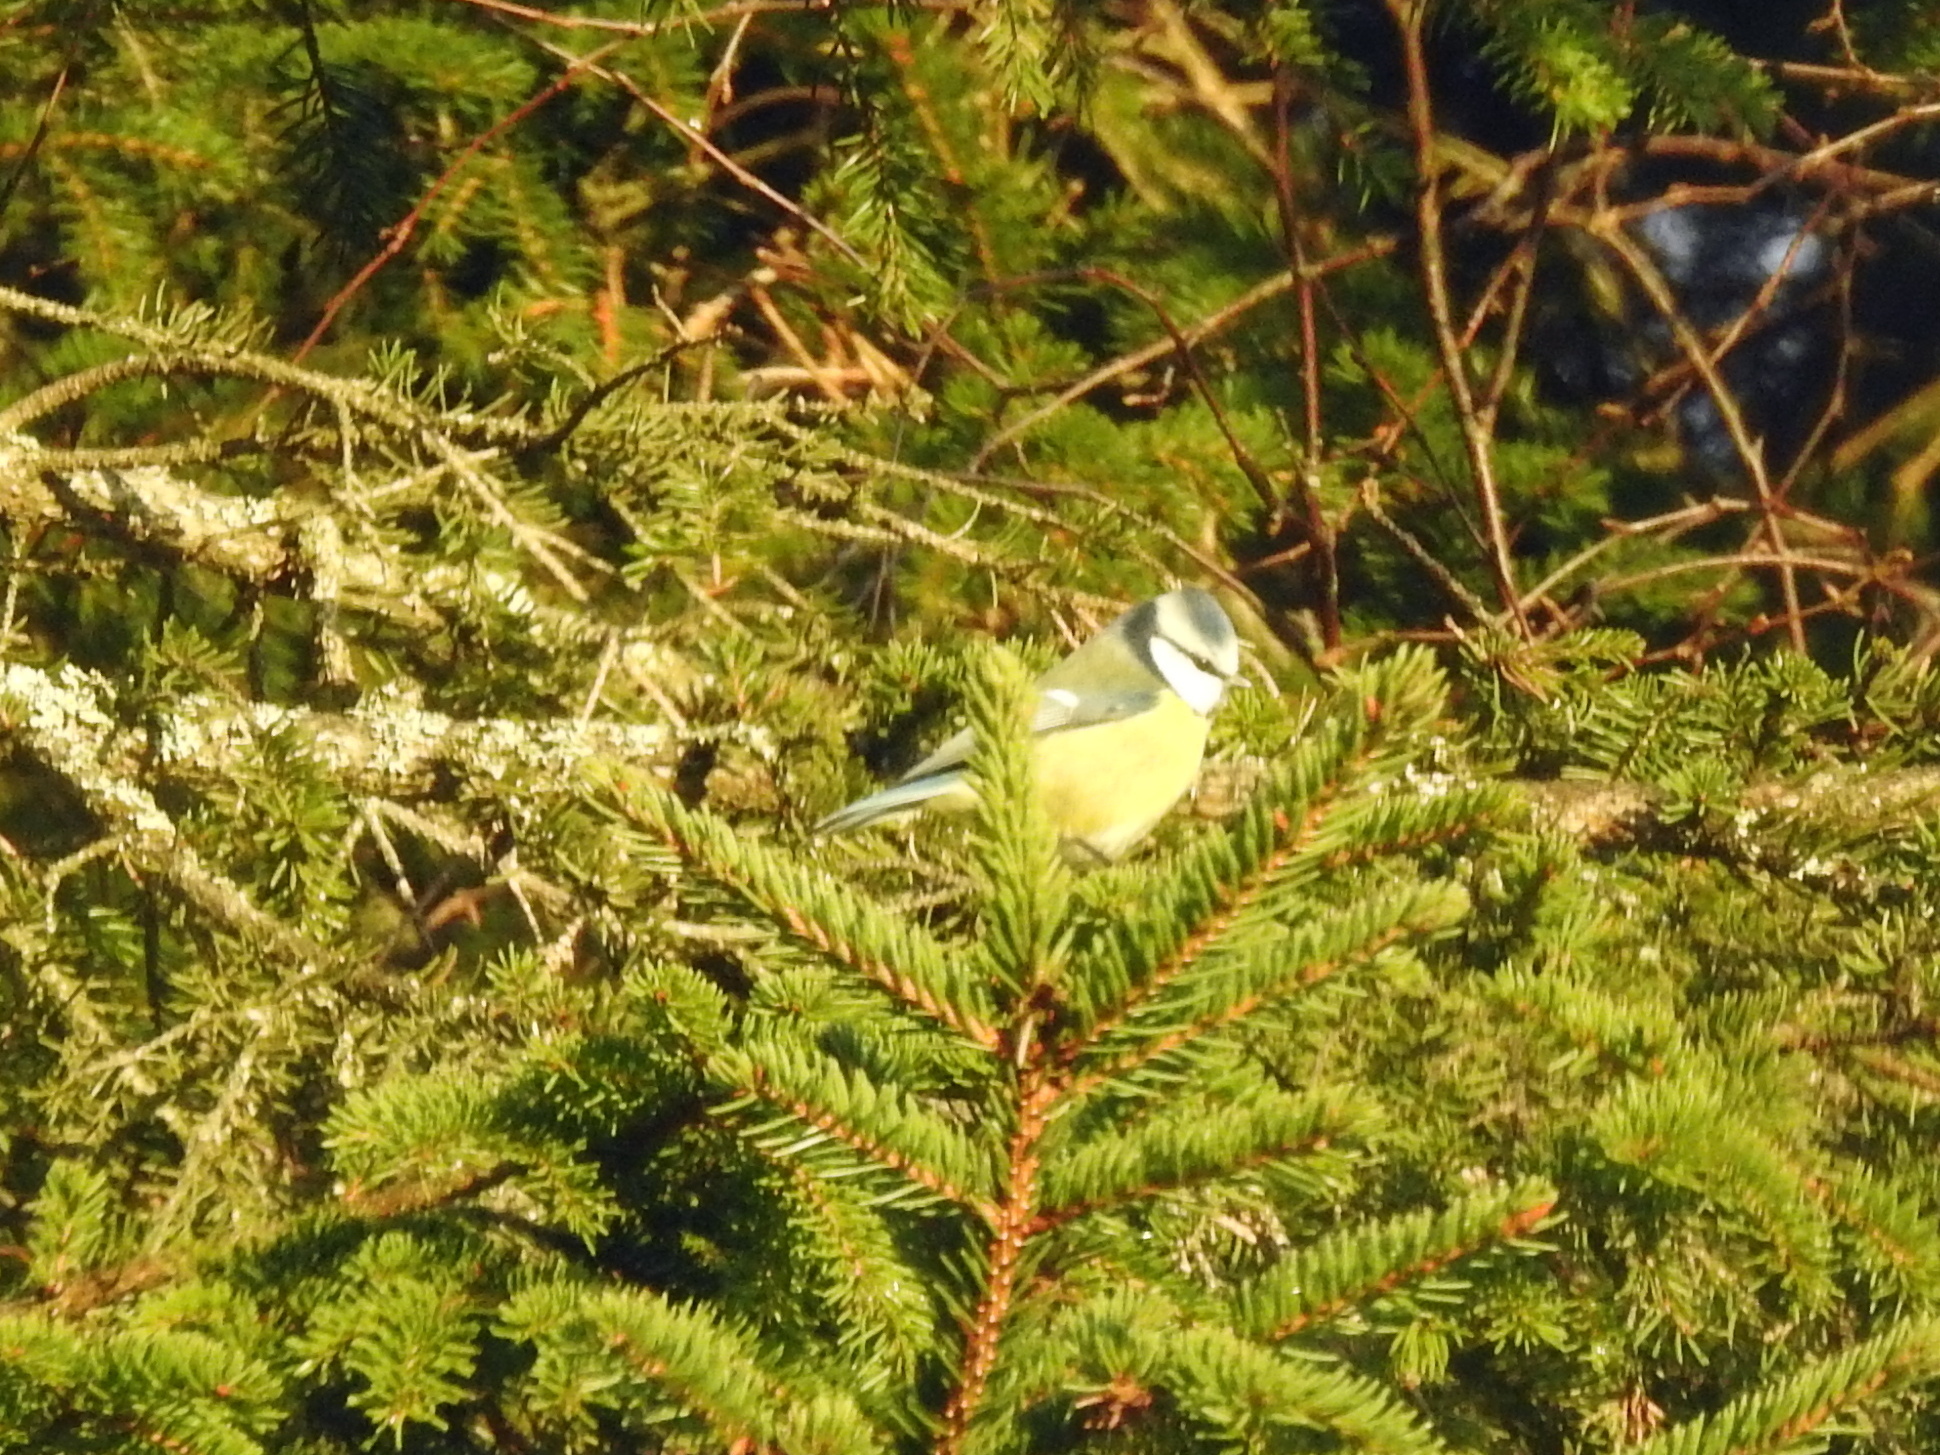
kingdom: Animalia
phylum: Chordata
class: Aves
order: Passeriformes
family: Paridae
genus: Cyanistes
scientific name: Cyanistes caeruleus
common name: Eurasian blue tit
